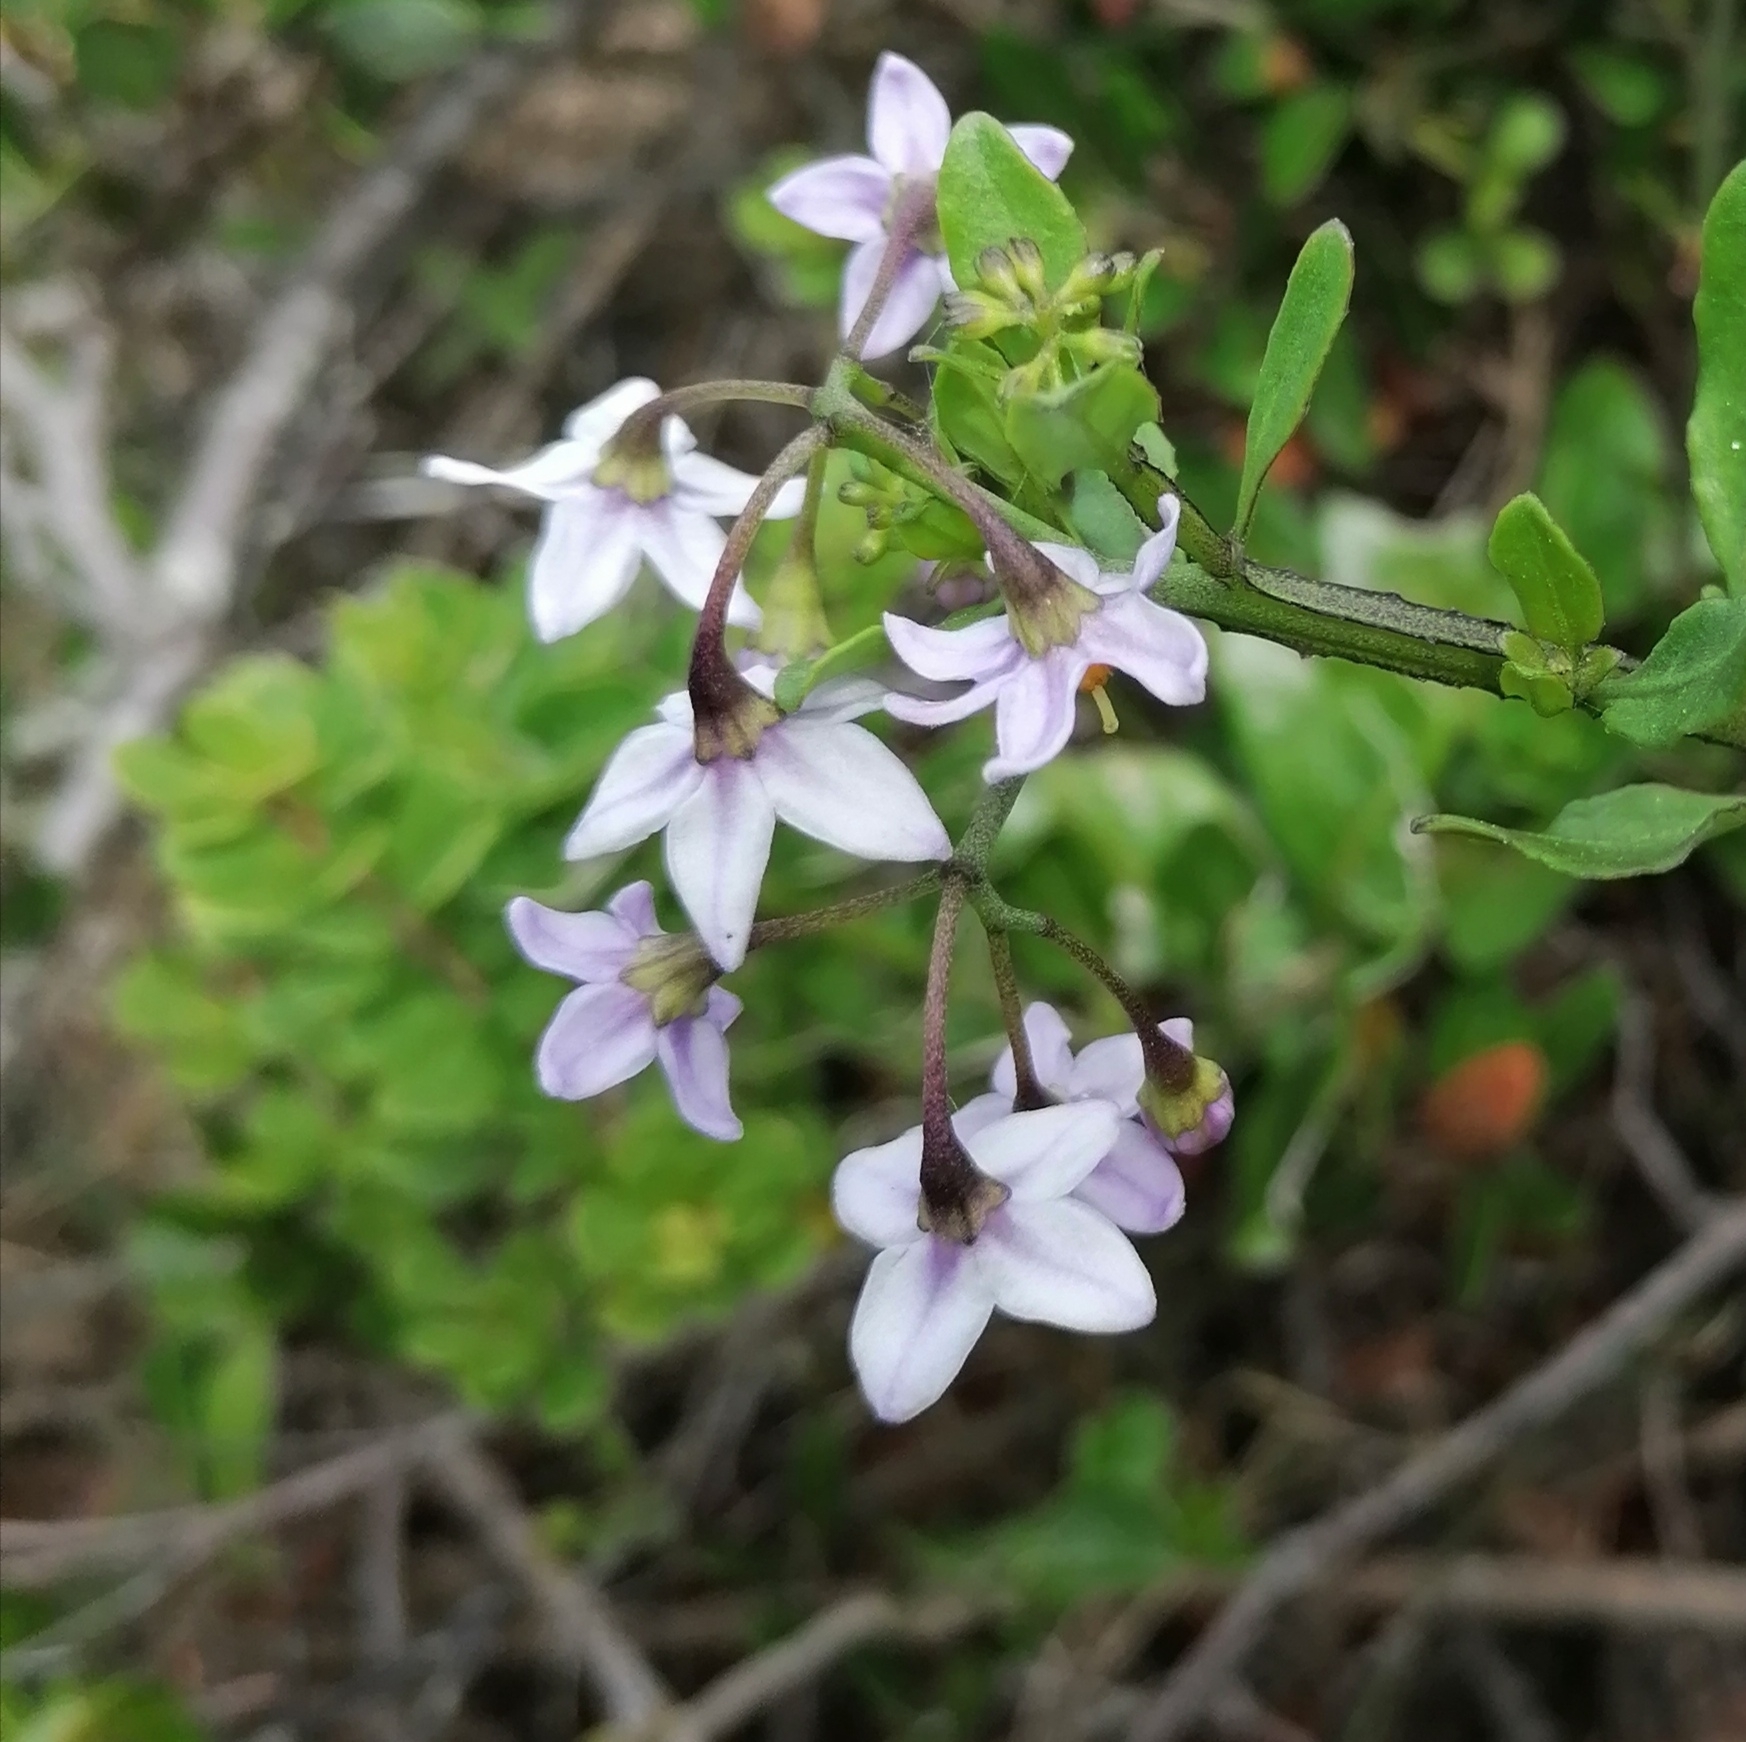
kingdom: Plantae
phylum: Tracheophyta
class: Magnoliopsida
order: Solanales
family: Solanaceae
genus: Solanum
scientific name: Solanum africanum
